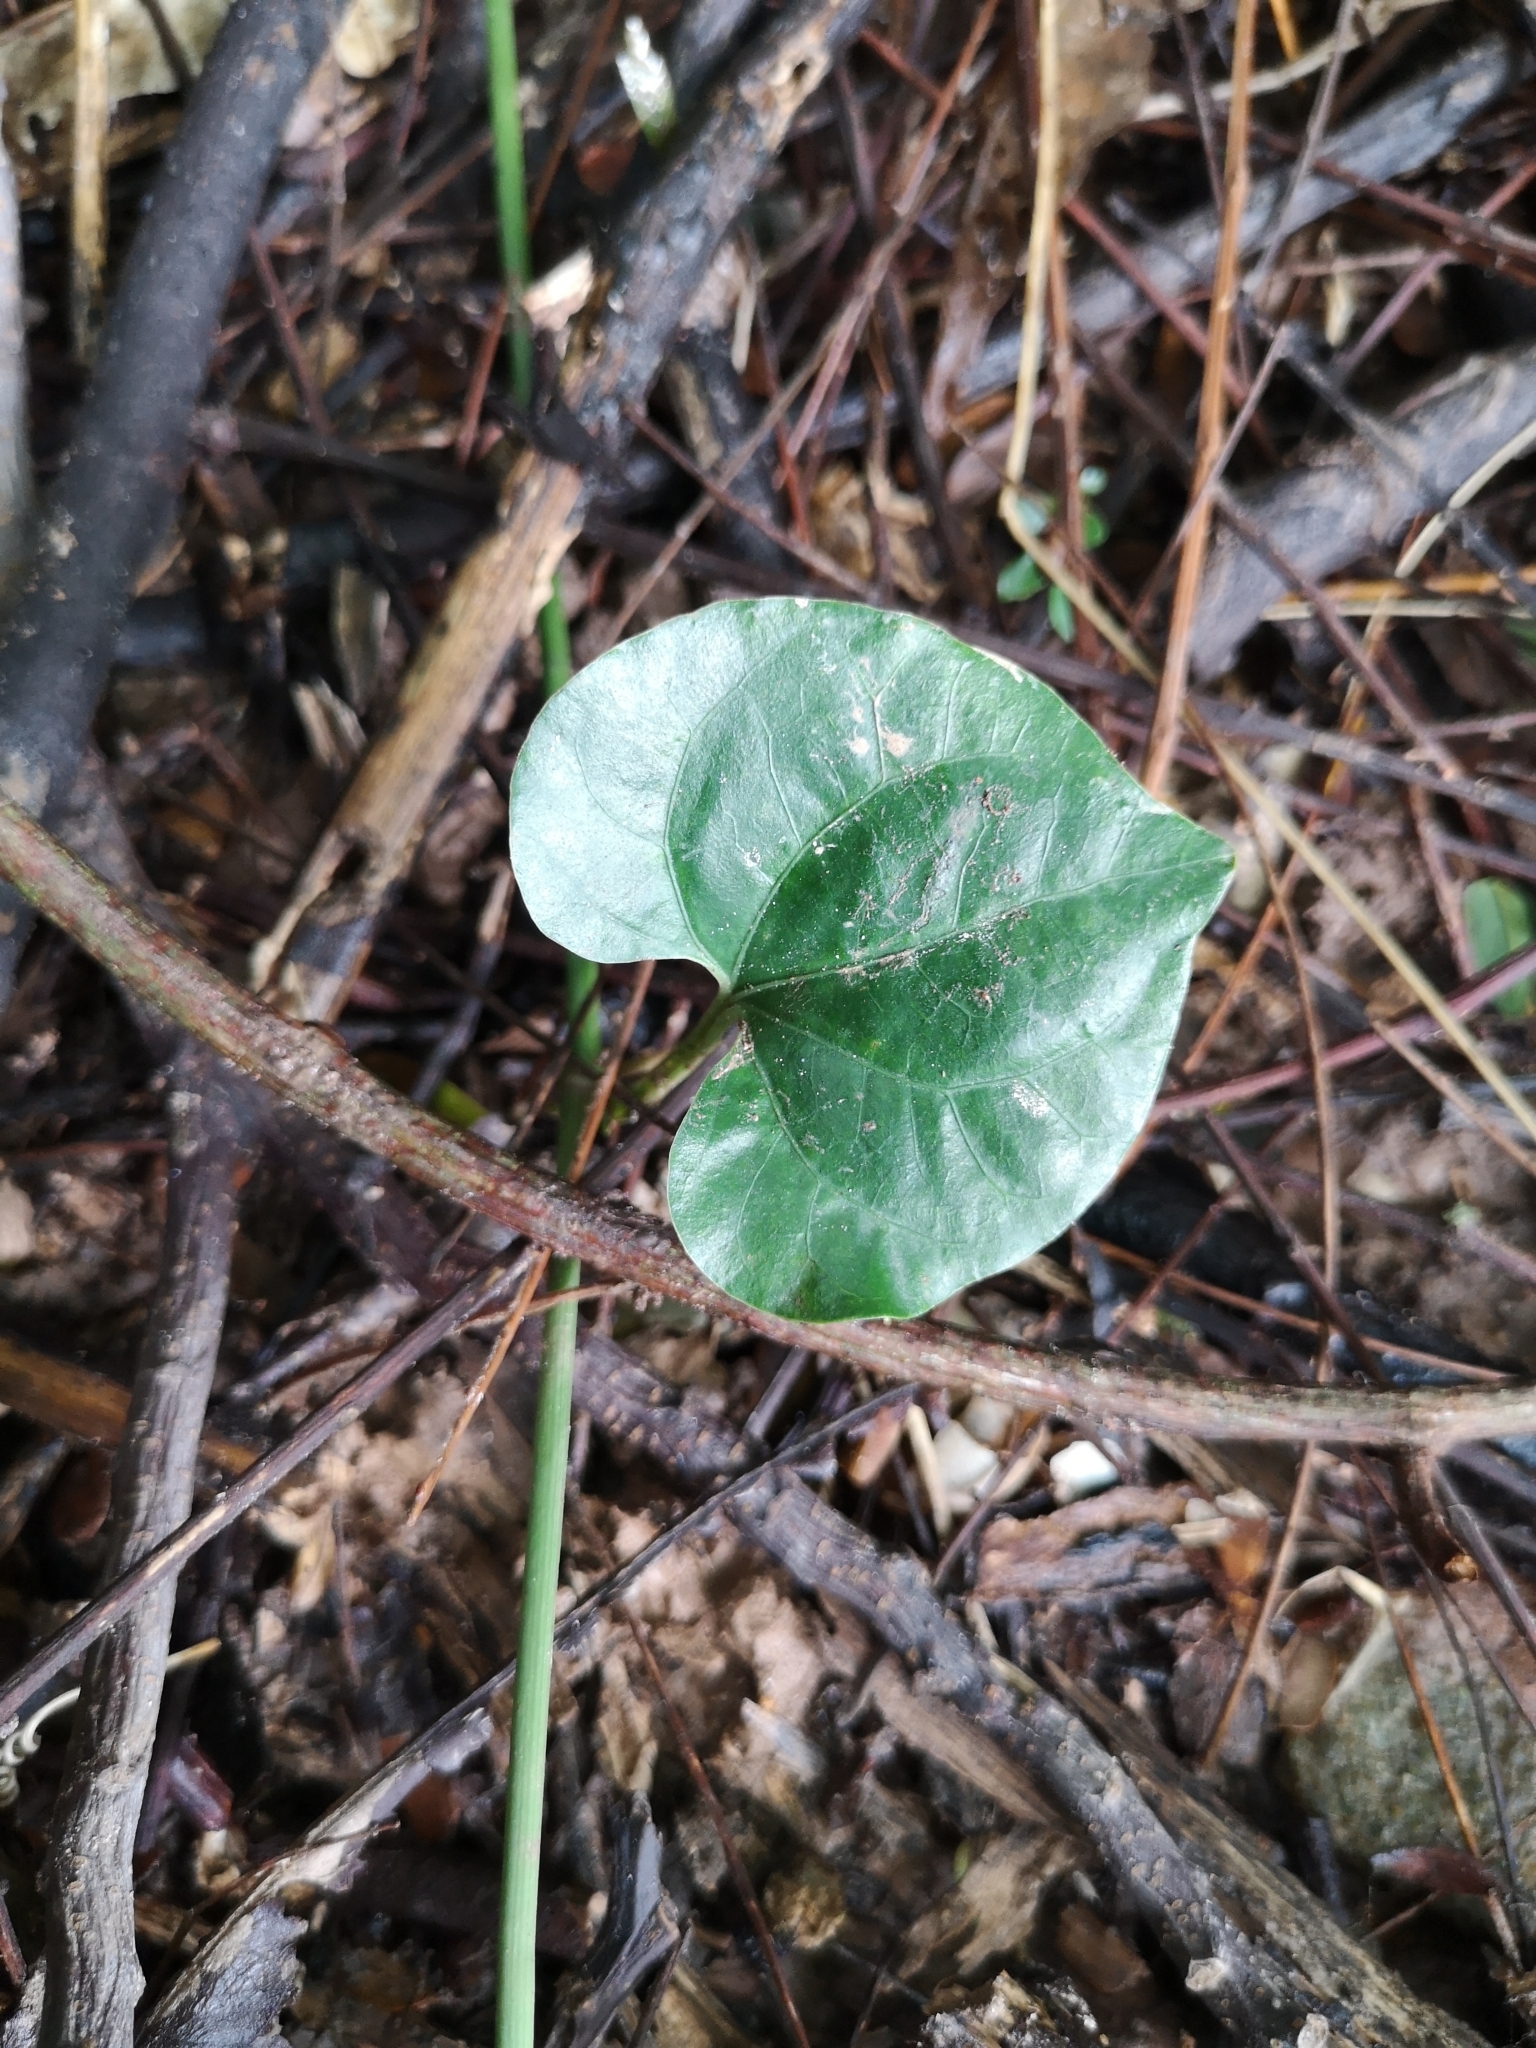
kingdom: Plantae
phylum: Tracheophyta
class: Magnoliopsida
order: Piperales
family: Piperaceae
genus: Piper
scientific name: Piper sarmentosum
